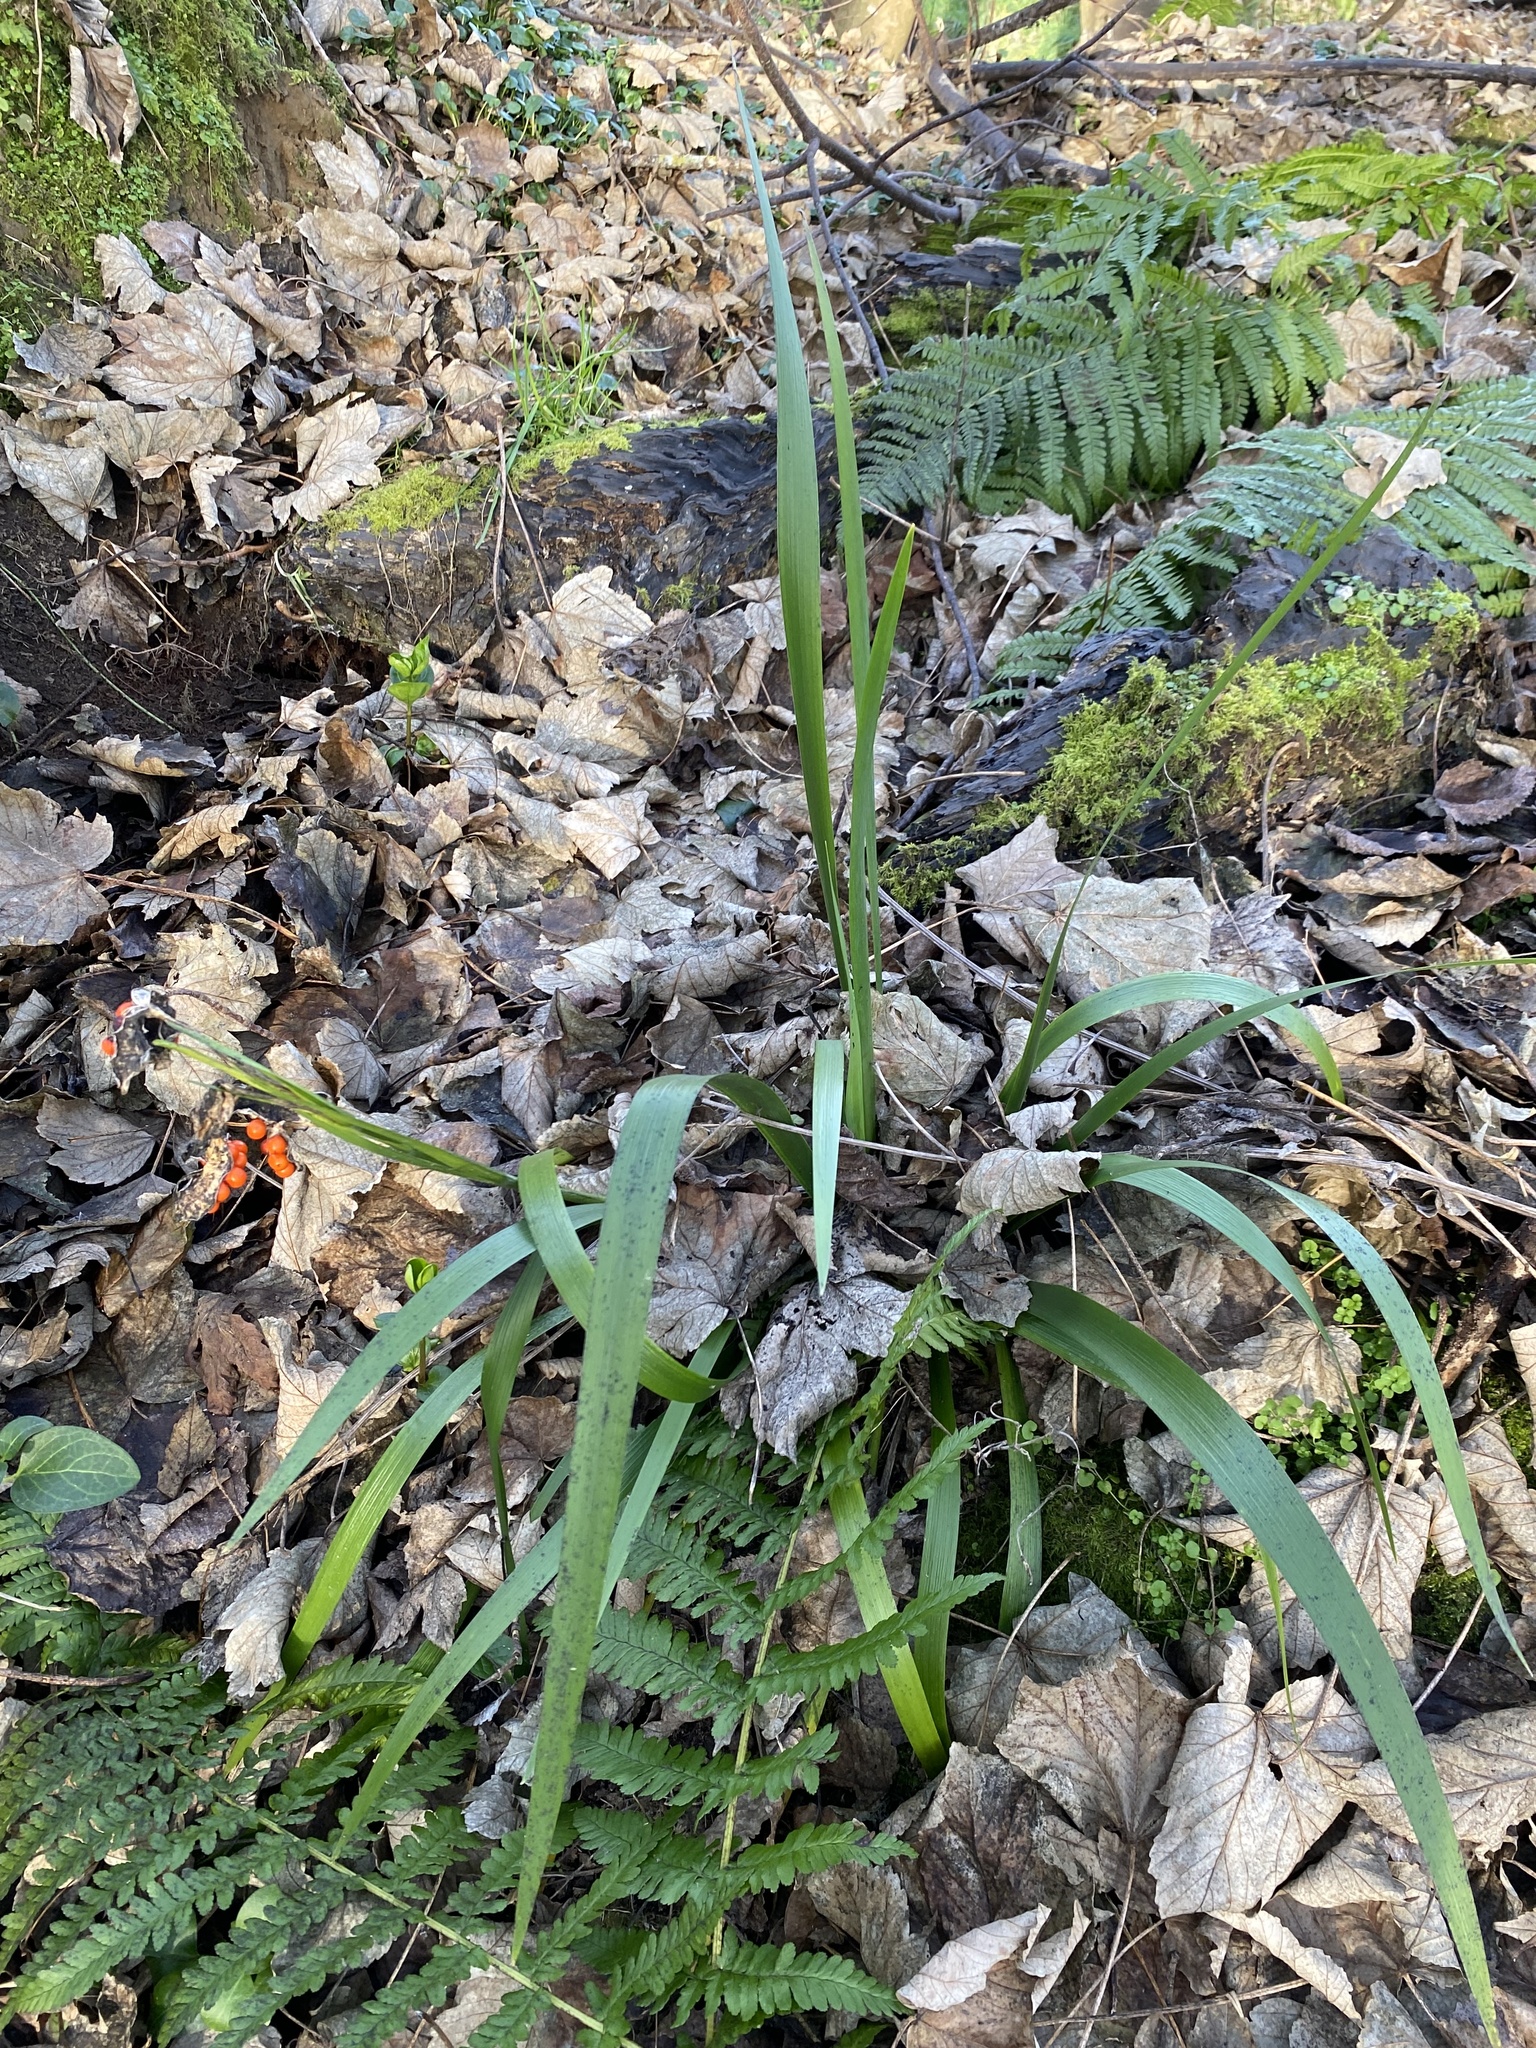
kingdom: Plantae
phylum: Tracheophyta
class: Liliopsida
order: Asparagales
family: Iridaceae
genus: Iris
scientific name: Iris foetidissima
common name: Stinking iris
